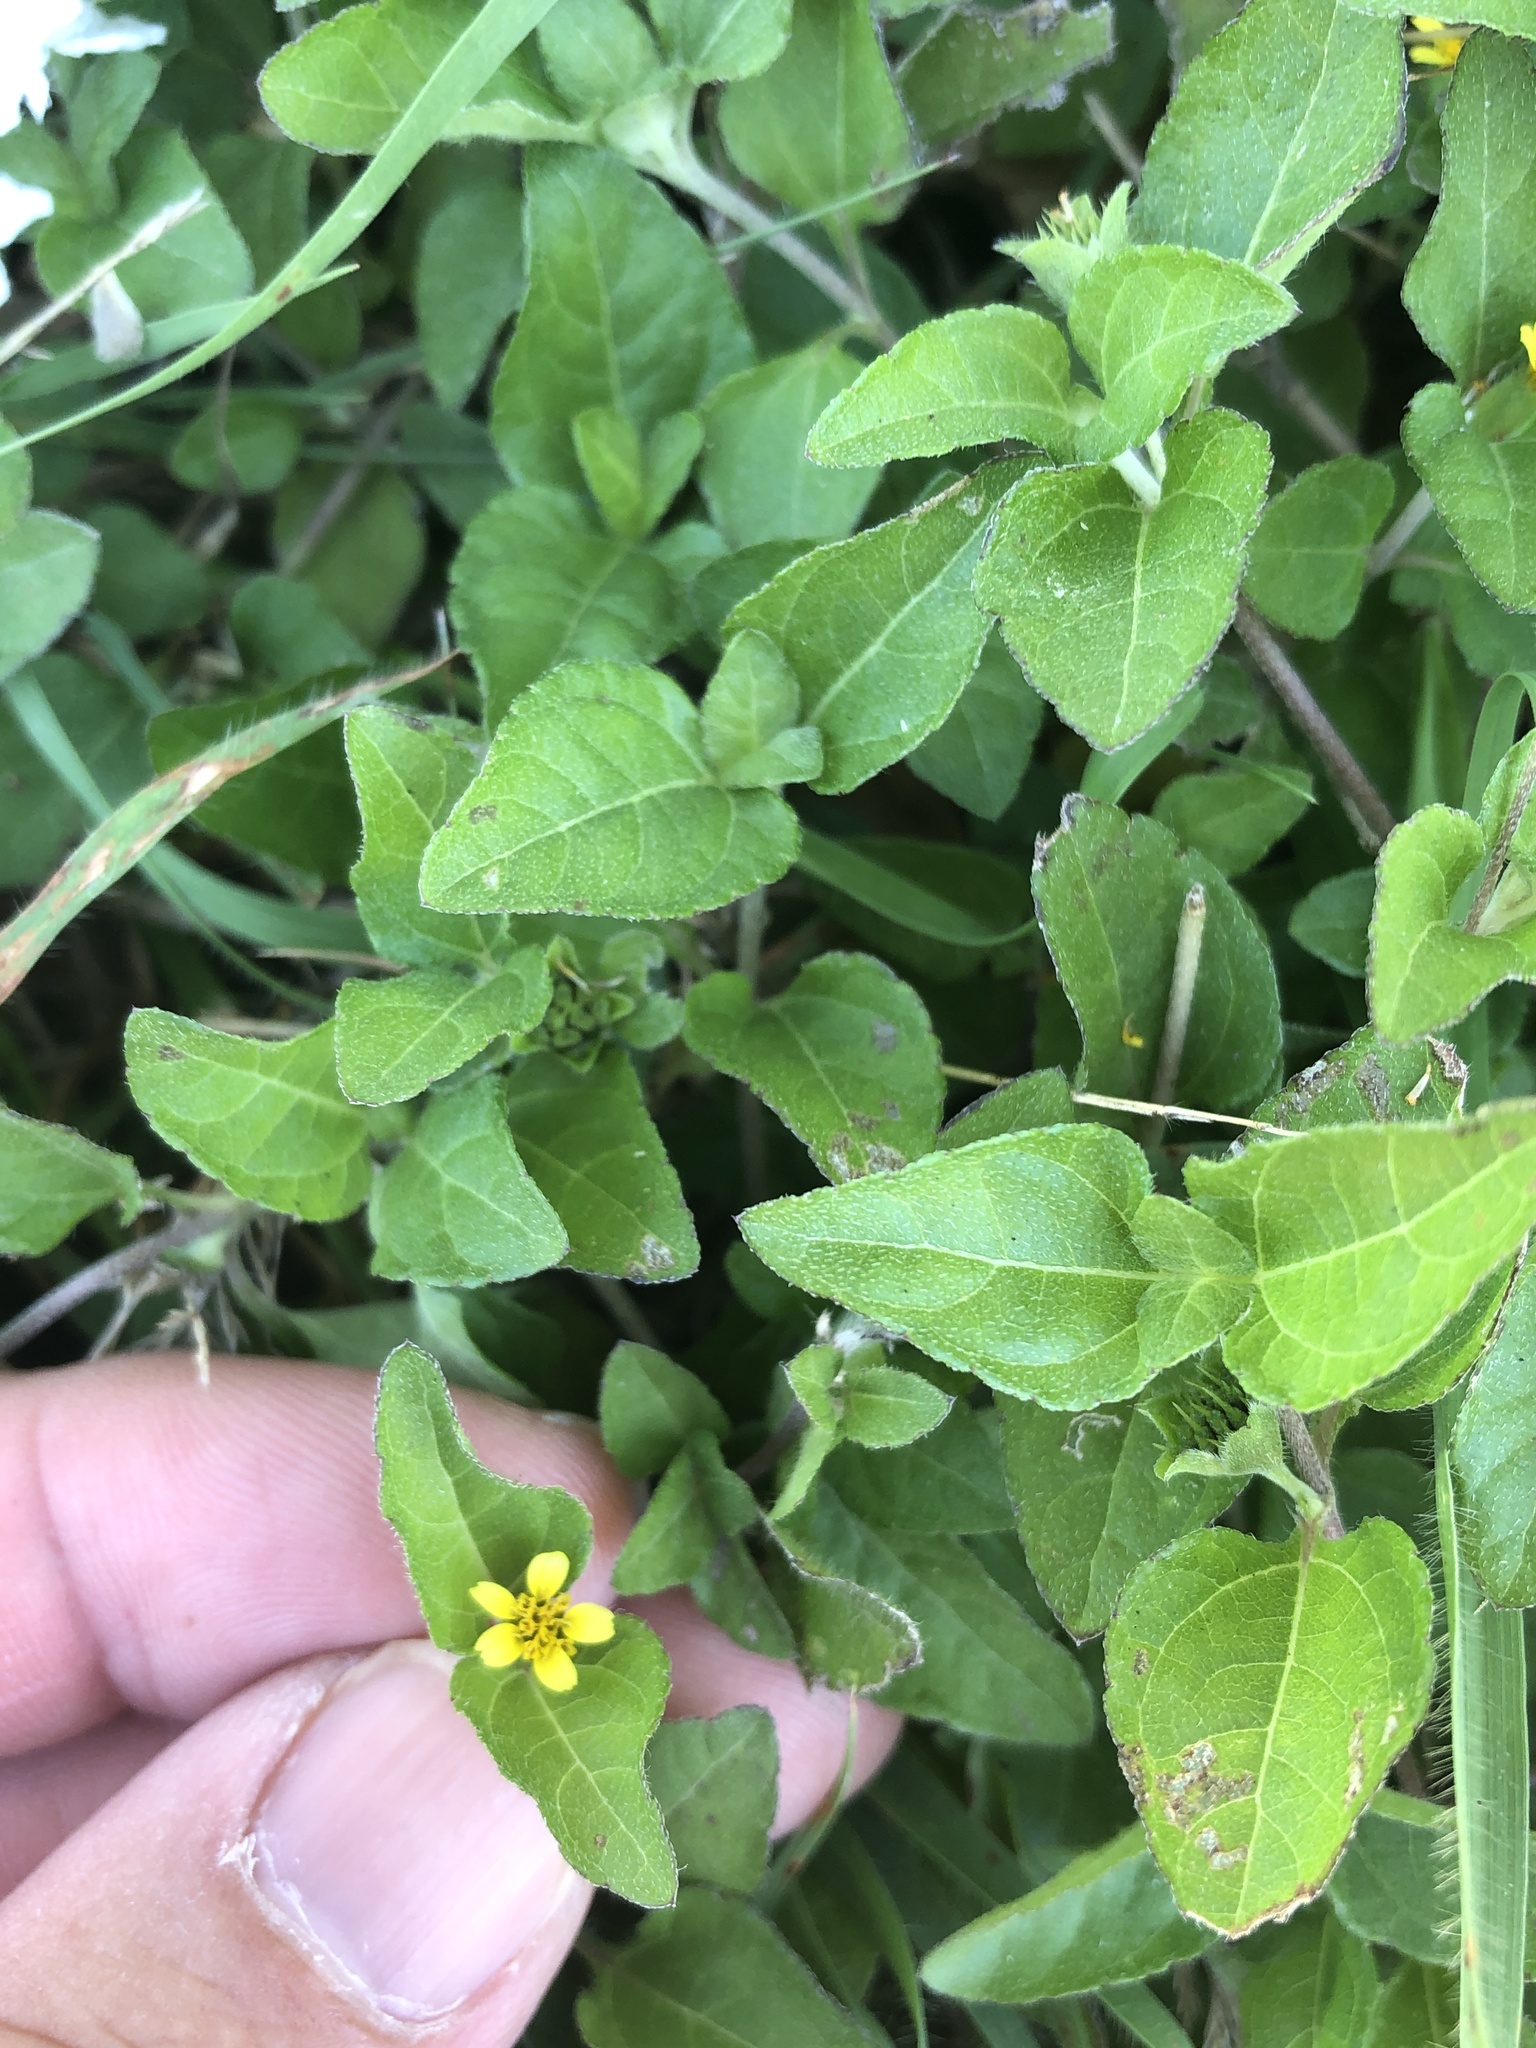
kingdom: Plantae
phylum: Tracheophyta
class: Magnoliopsida
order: Asterales
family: Asteraceae
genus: Calyptocarpus
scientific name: Calyptocarpus vialis
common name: Straggler daisy
